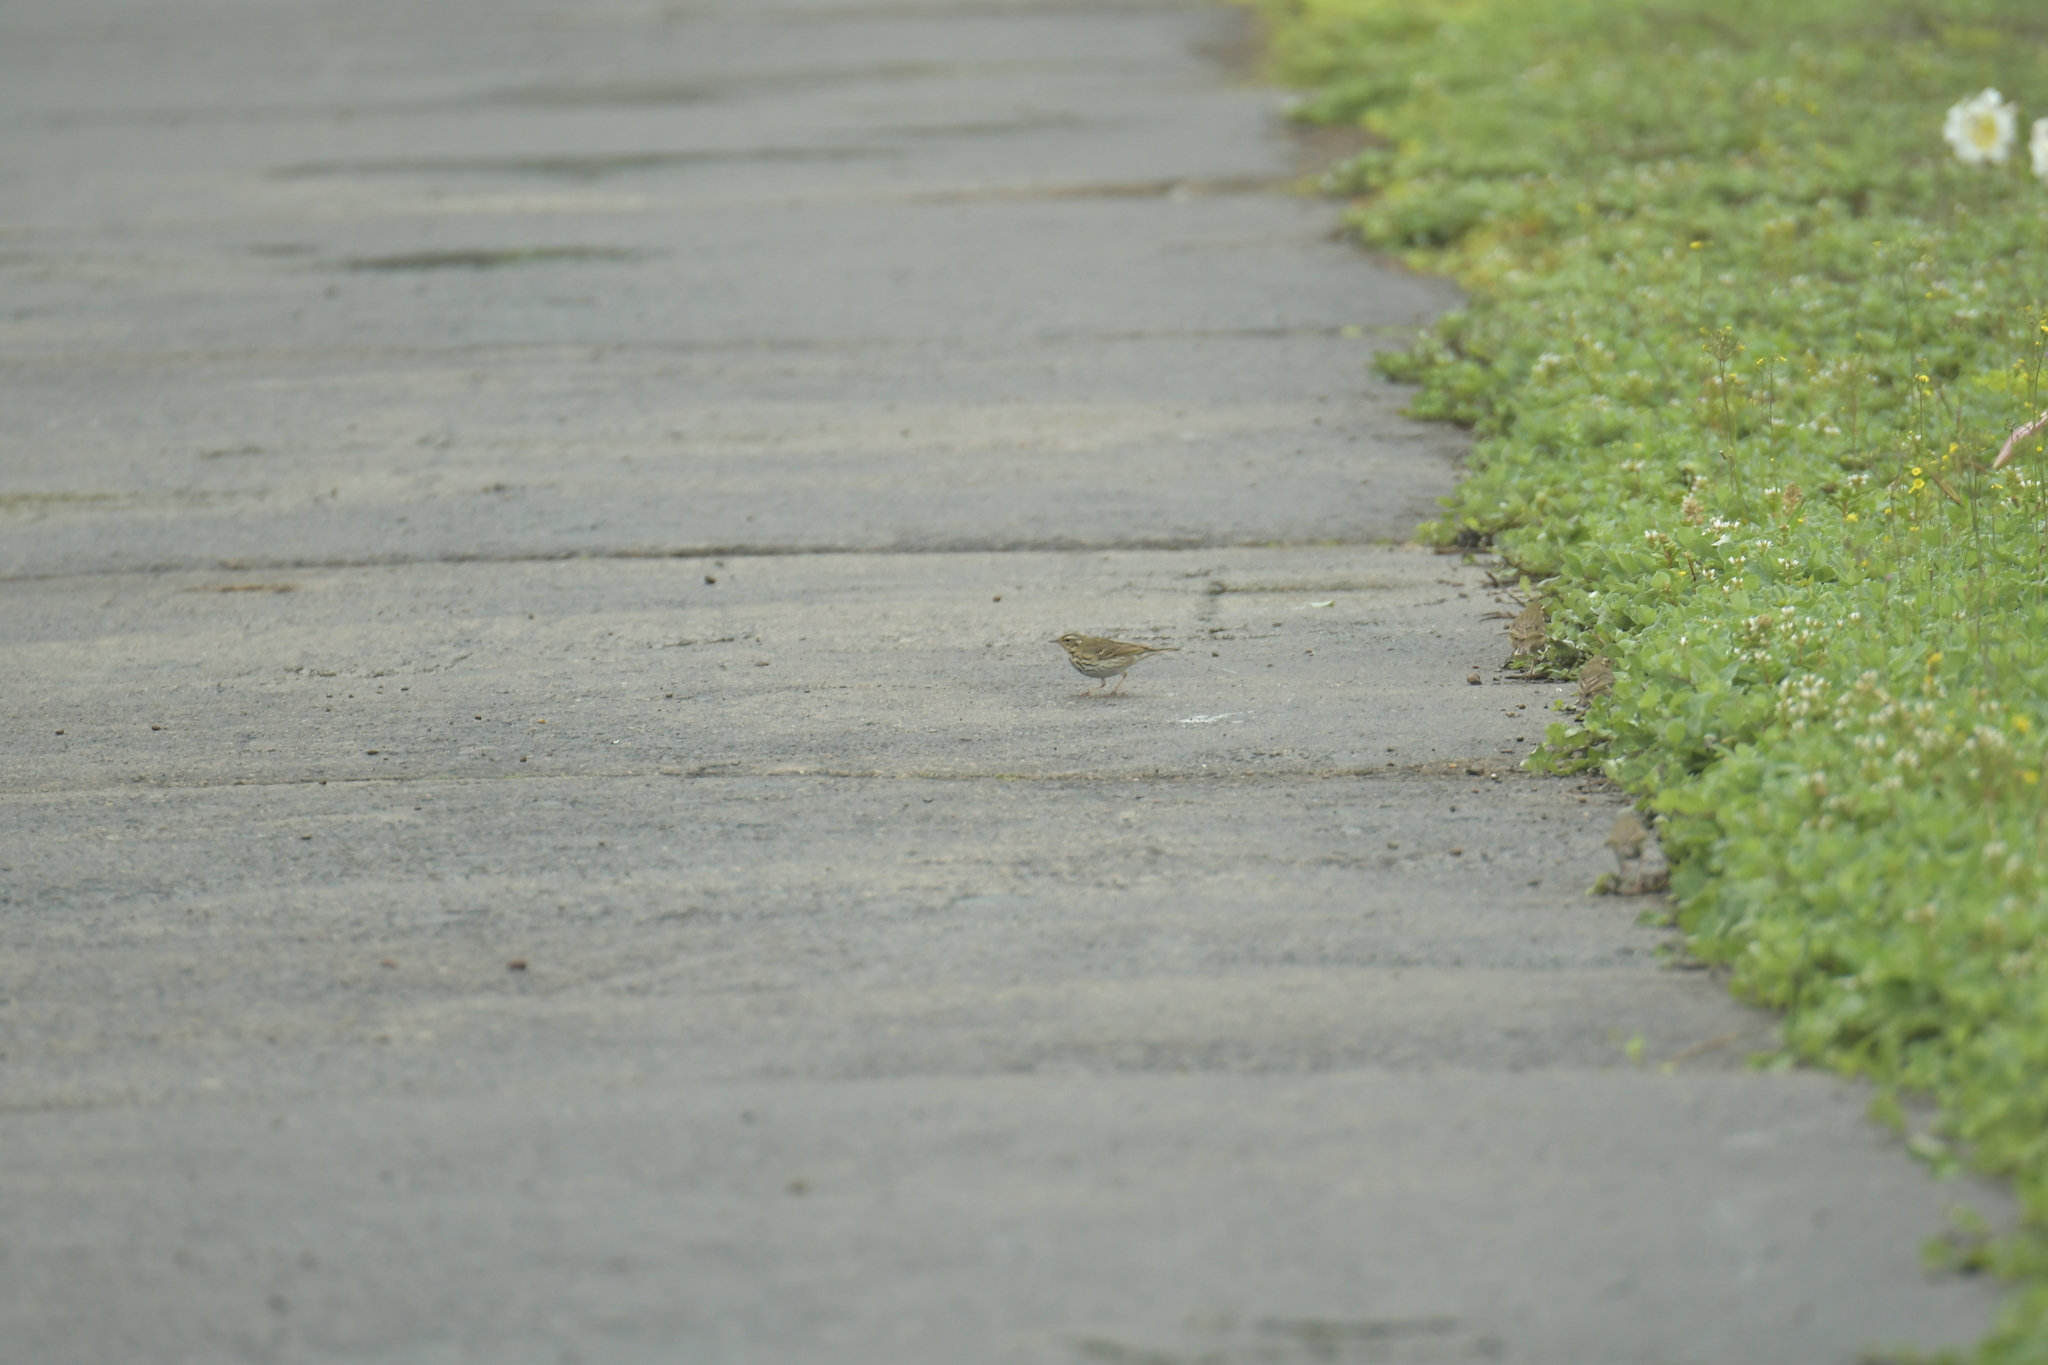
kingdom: Animalia
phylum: Chordata
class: Aves
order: Passeriformes
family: Motacillidae
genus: Anthus
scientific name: Anthus hodgsoni
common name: Olive-backed pipit
